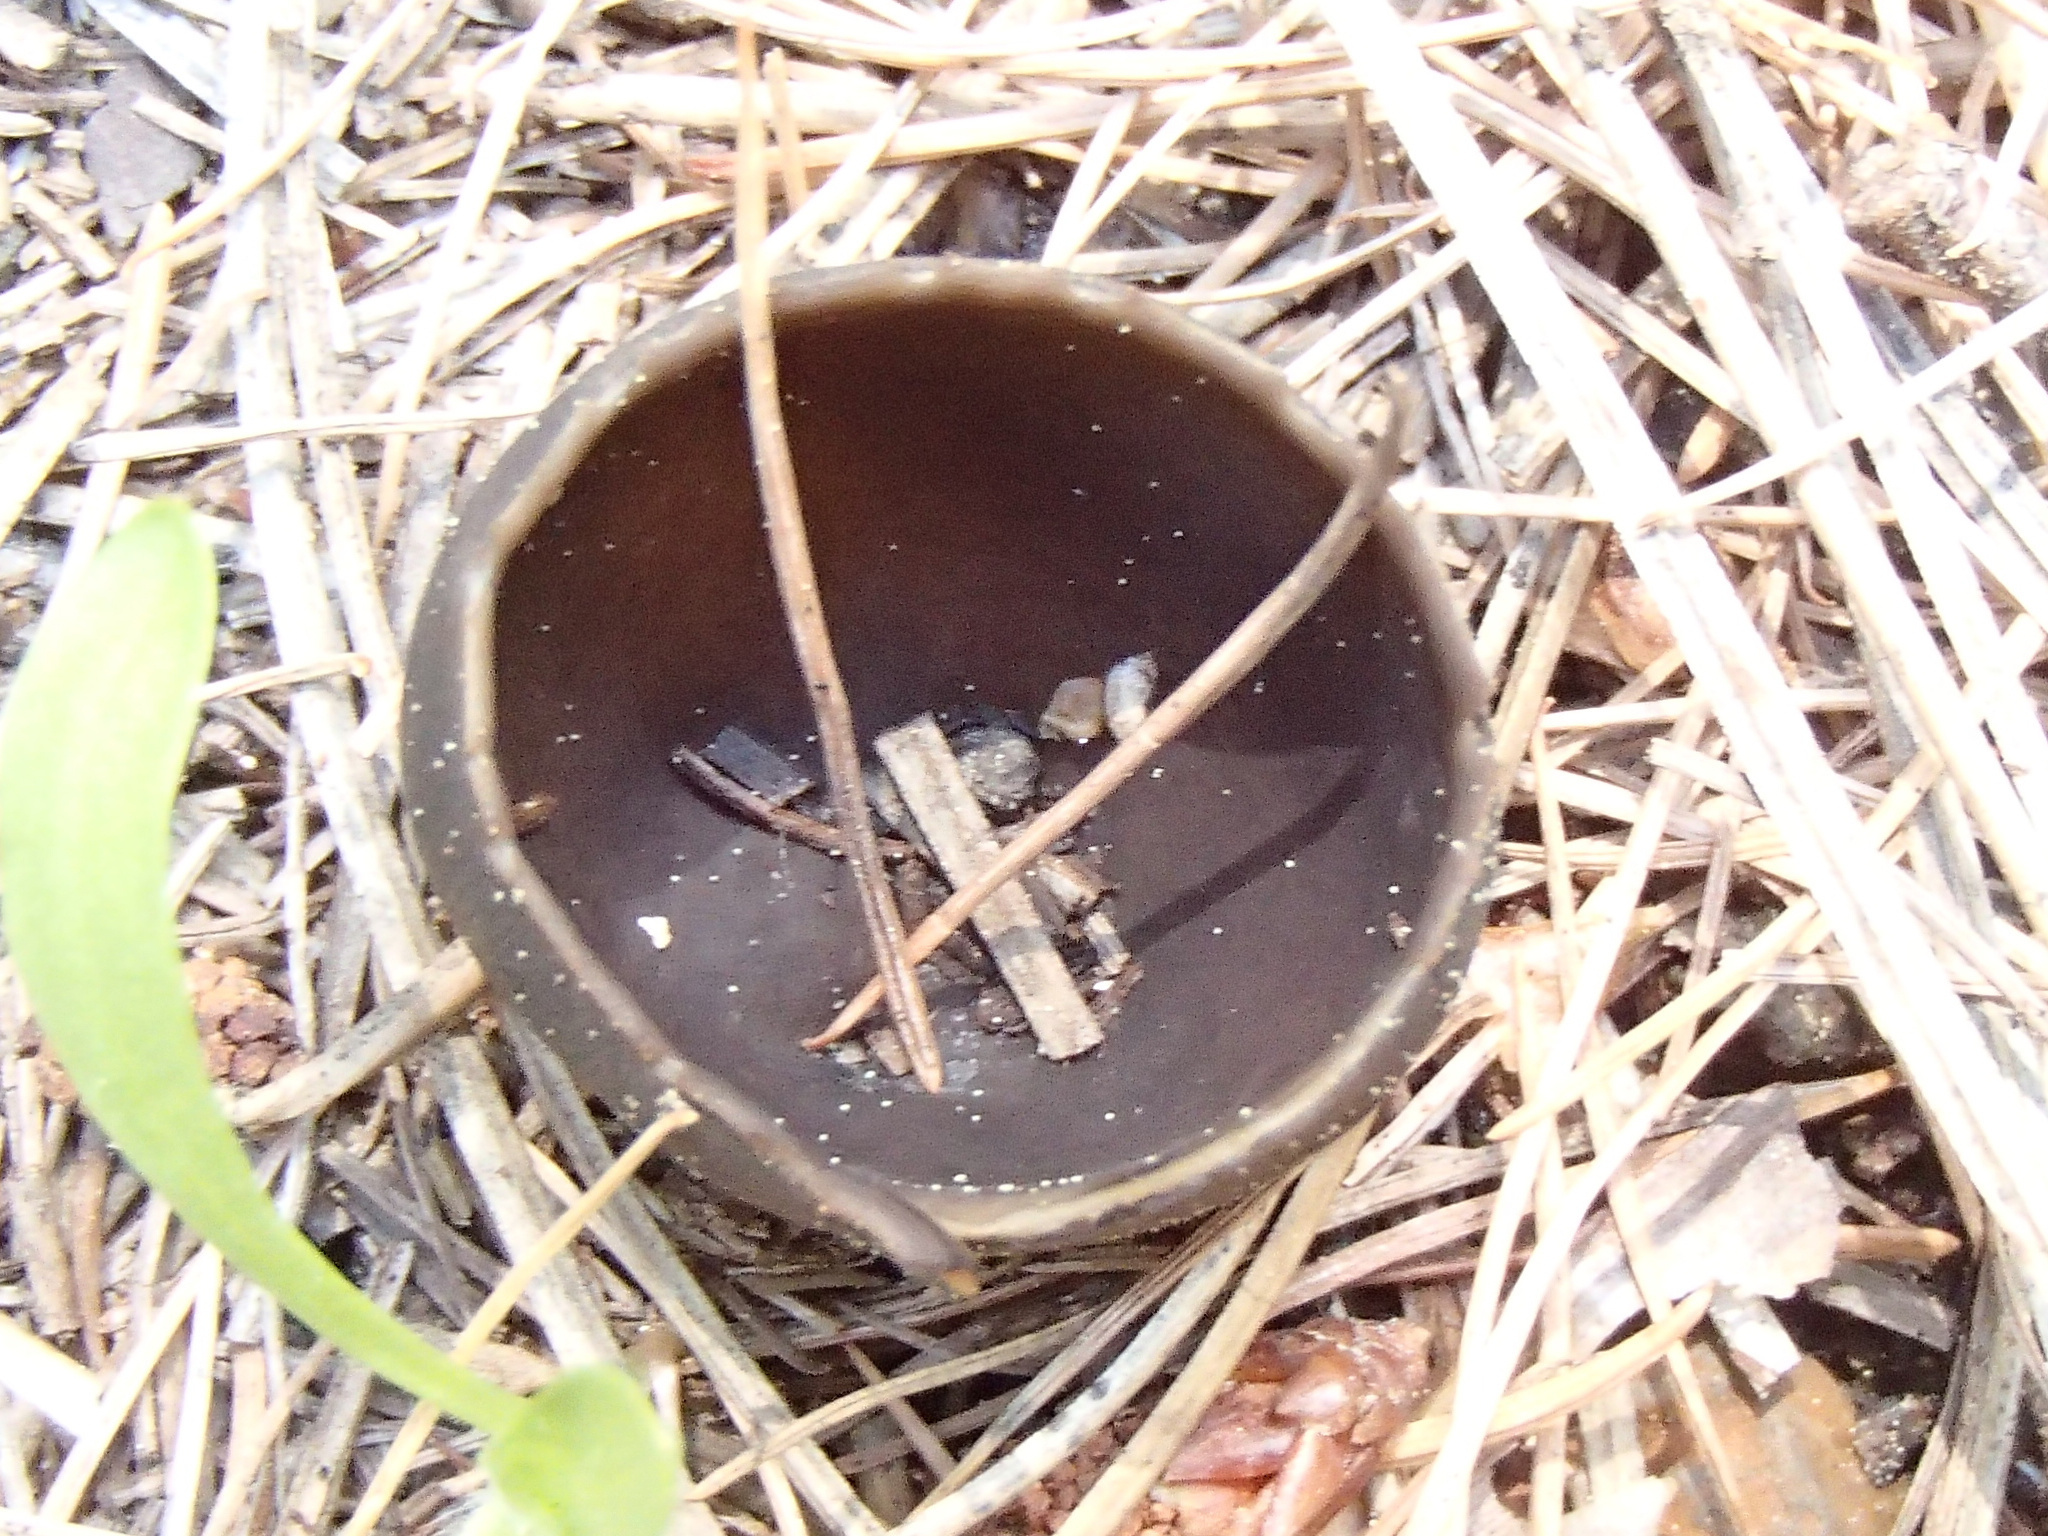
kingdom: Fungi
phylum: Ascomycota
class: Pezizomycetes
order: Pezizales
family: Helvellaceae
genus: Dissingia
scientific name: Dissingia leucomelaena
